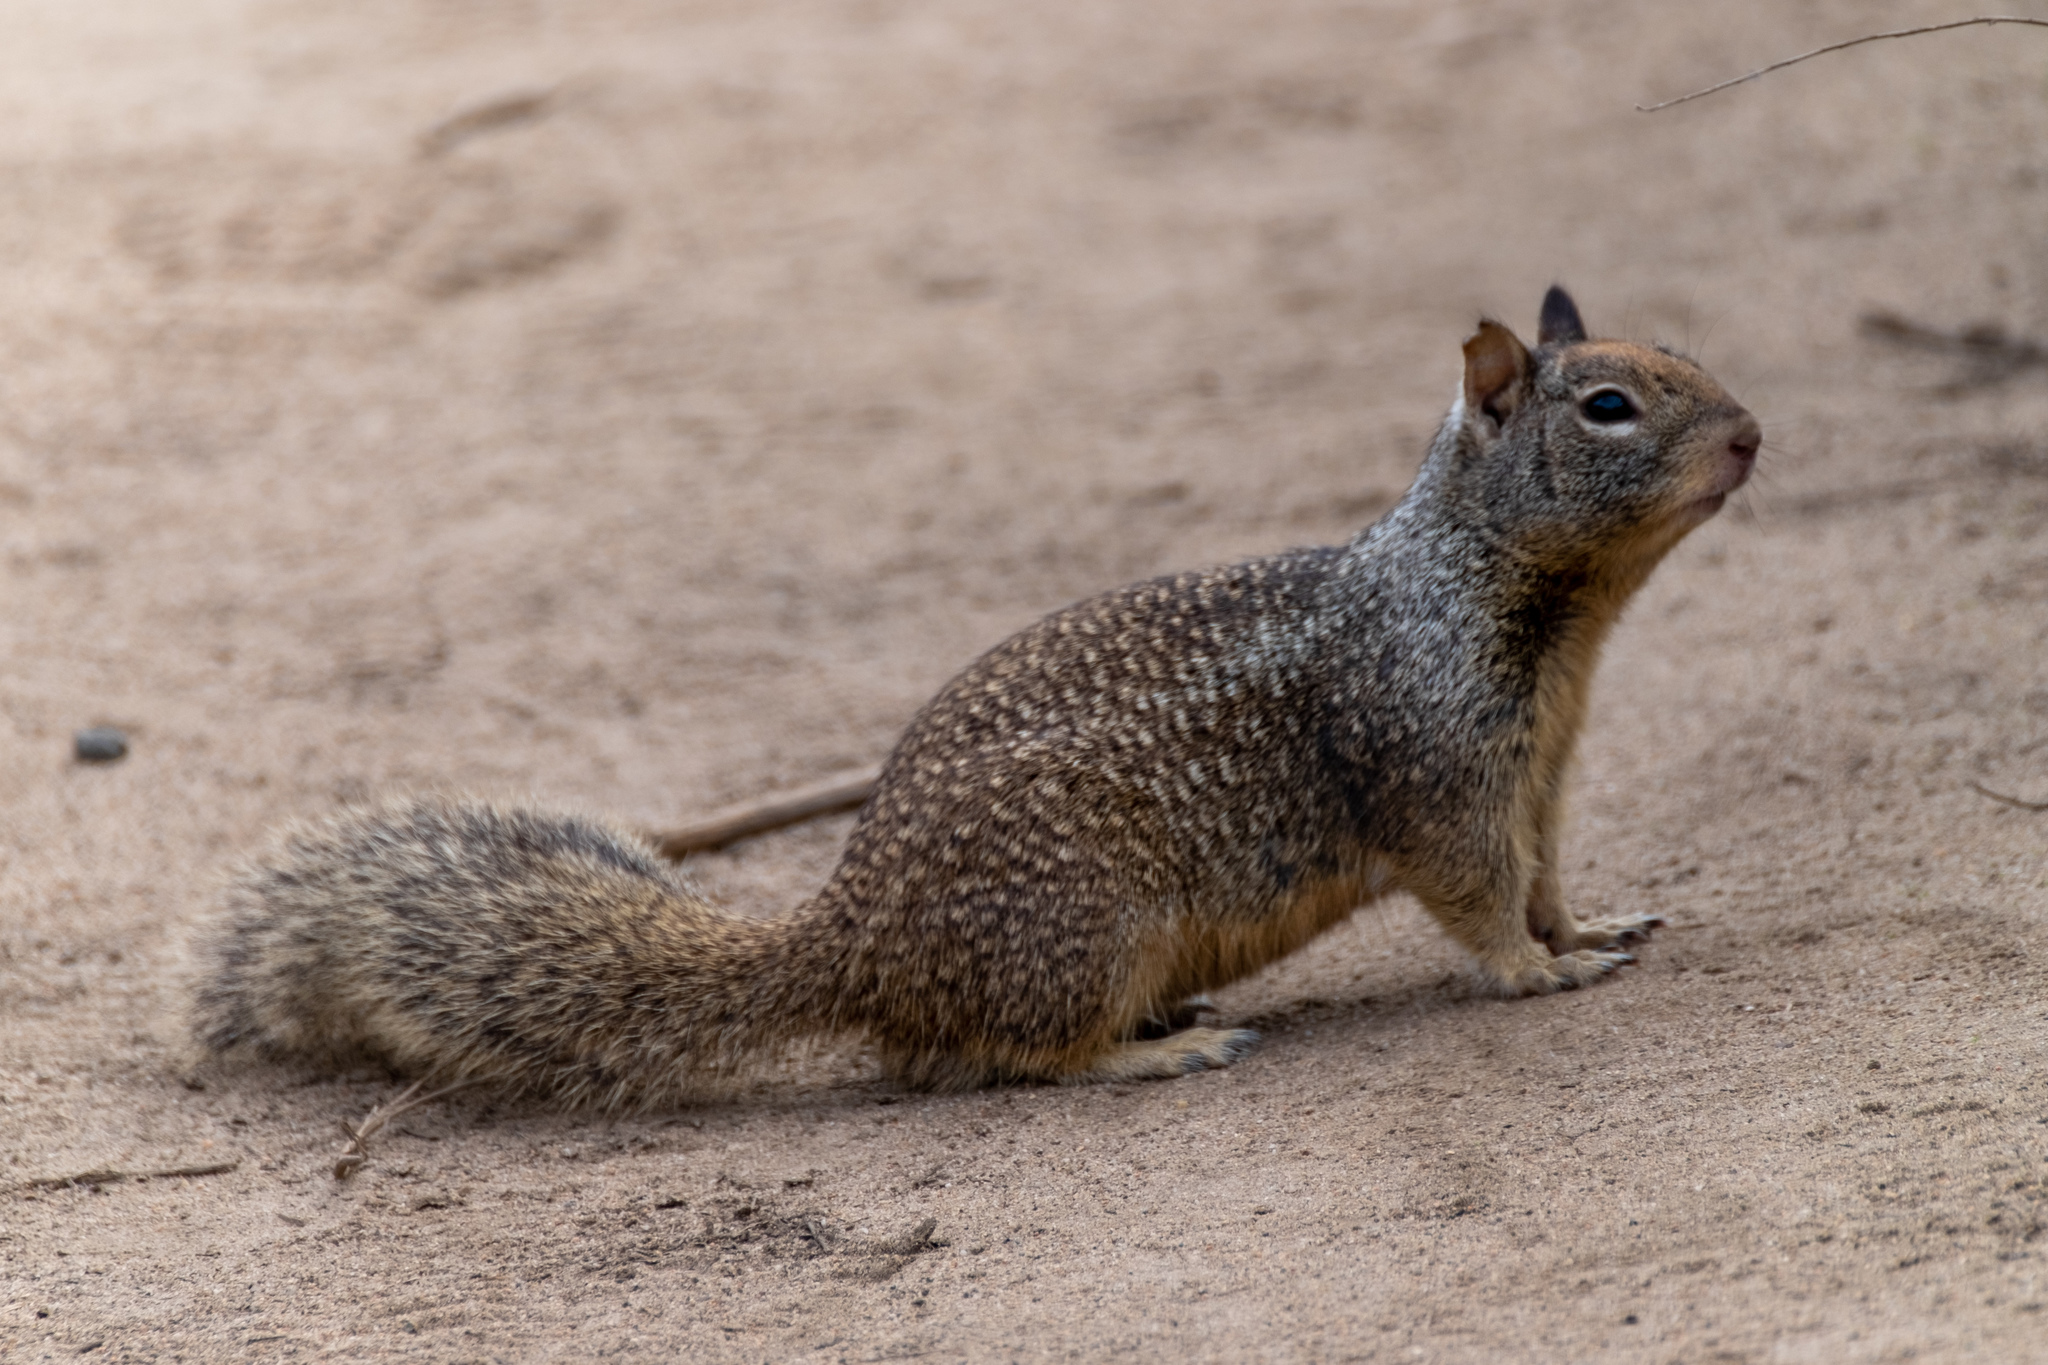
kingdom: Animalia
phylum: Chordata
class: Mammalia
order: Rodentia
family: Sciuridae
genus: Otospermophilus
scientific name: Otospermophilus beecheyi
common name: California ground squirrel
